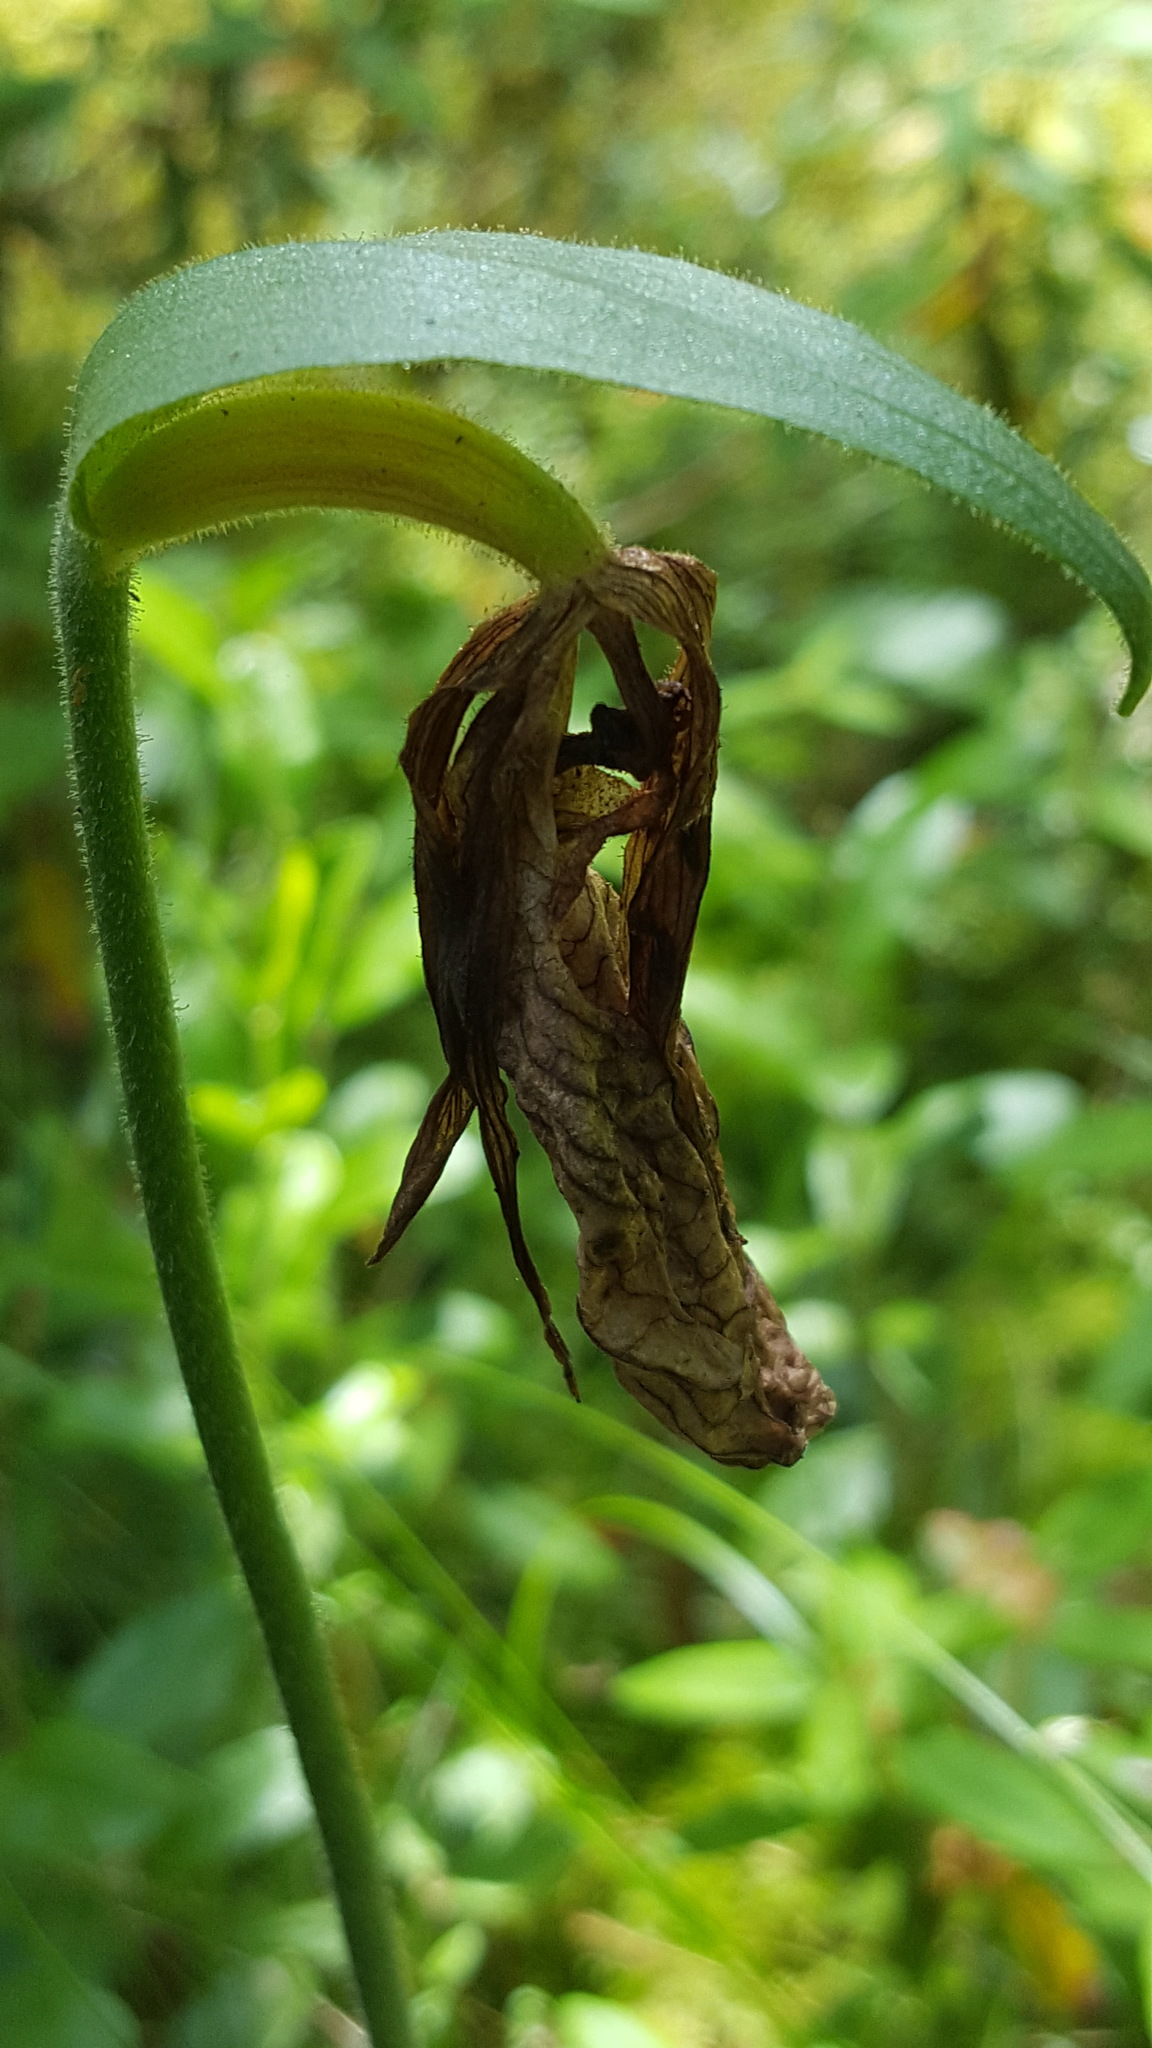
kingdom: Plantae
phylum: Tracheophyta
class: Liliopsida
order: Asparagales
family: Orchidaceae
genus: Cypripedium
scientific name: Cypripedium acaule
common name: Pink lady's-slipper
